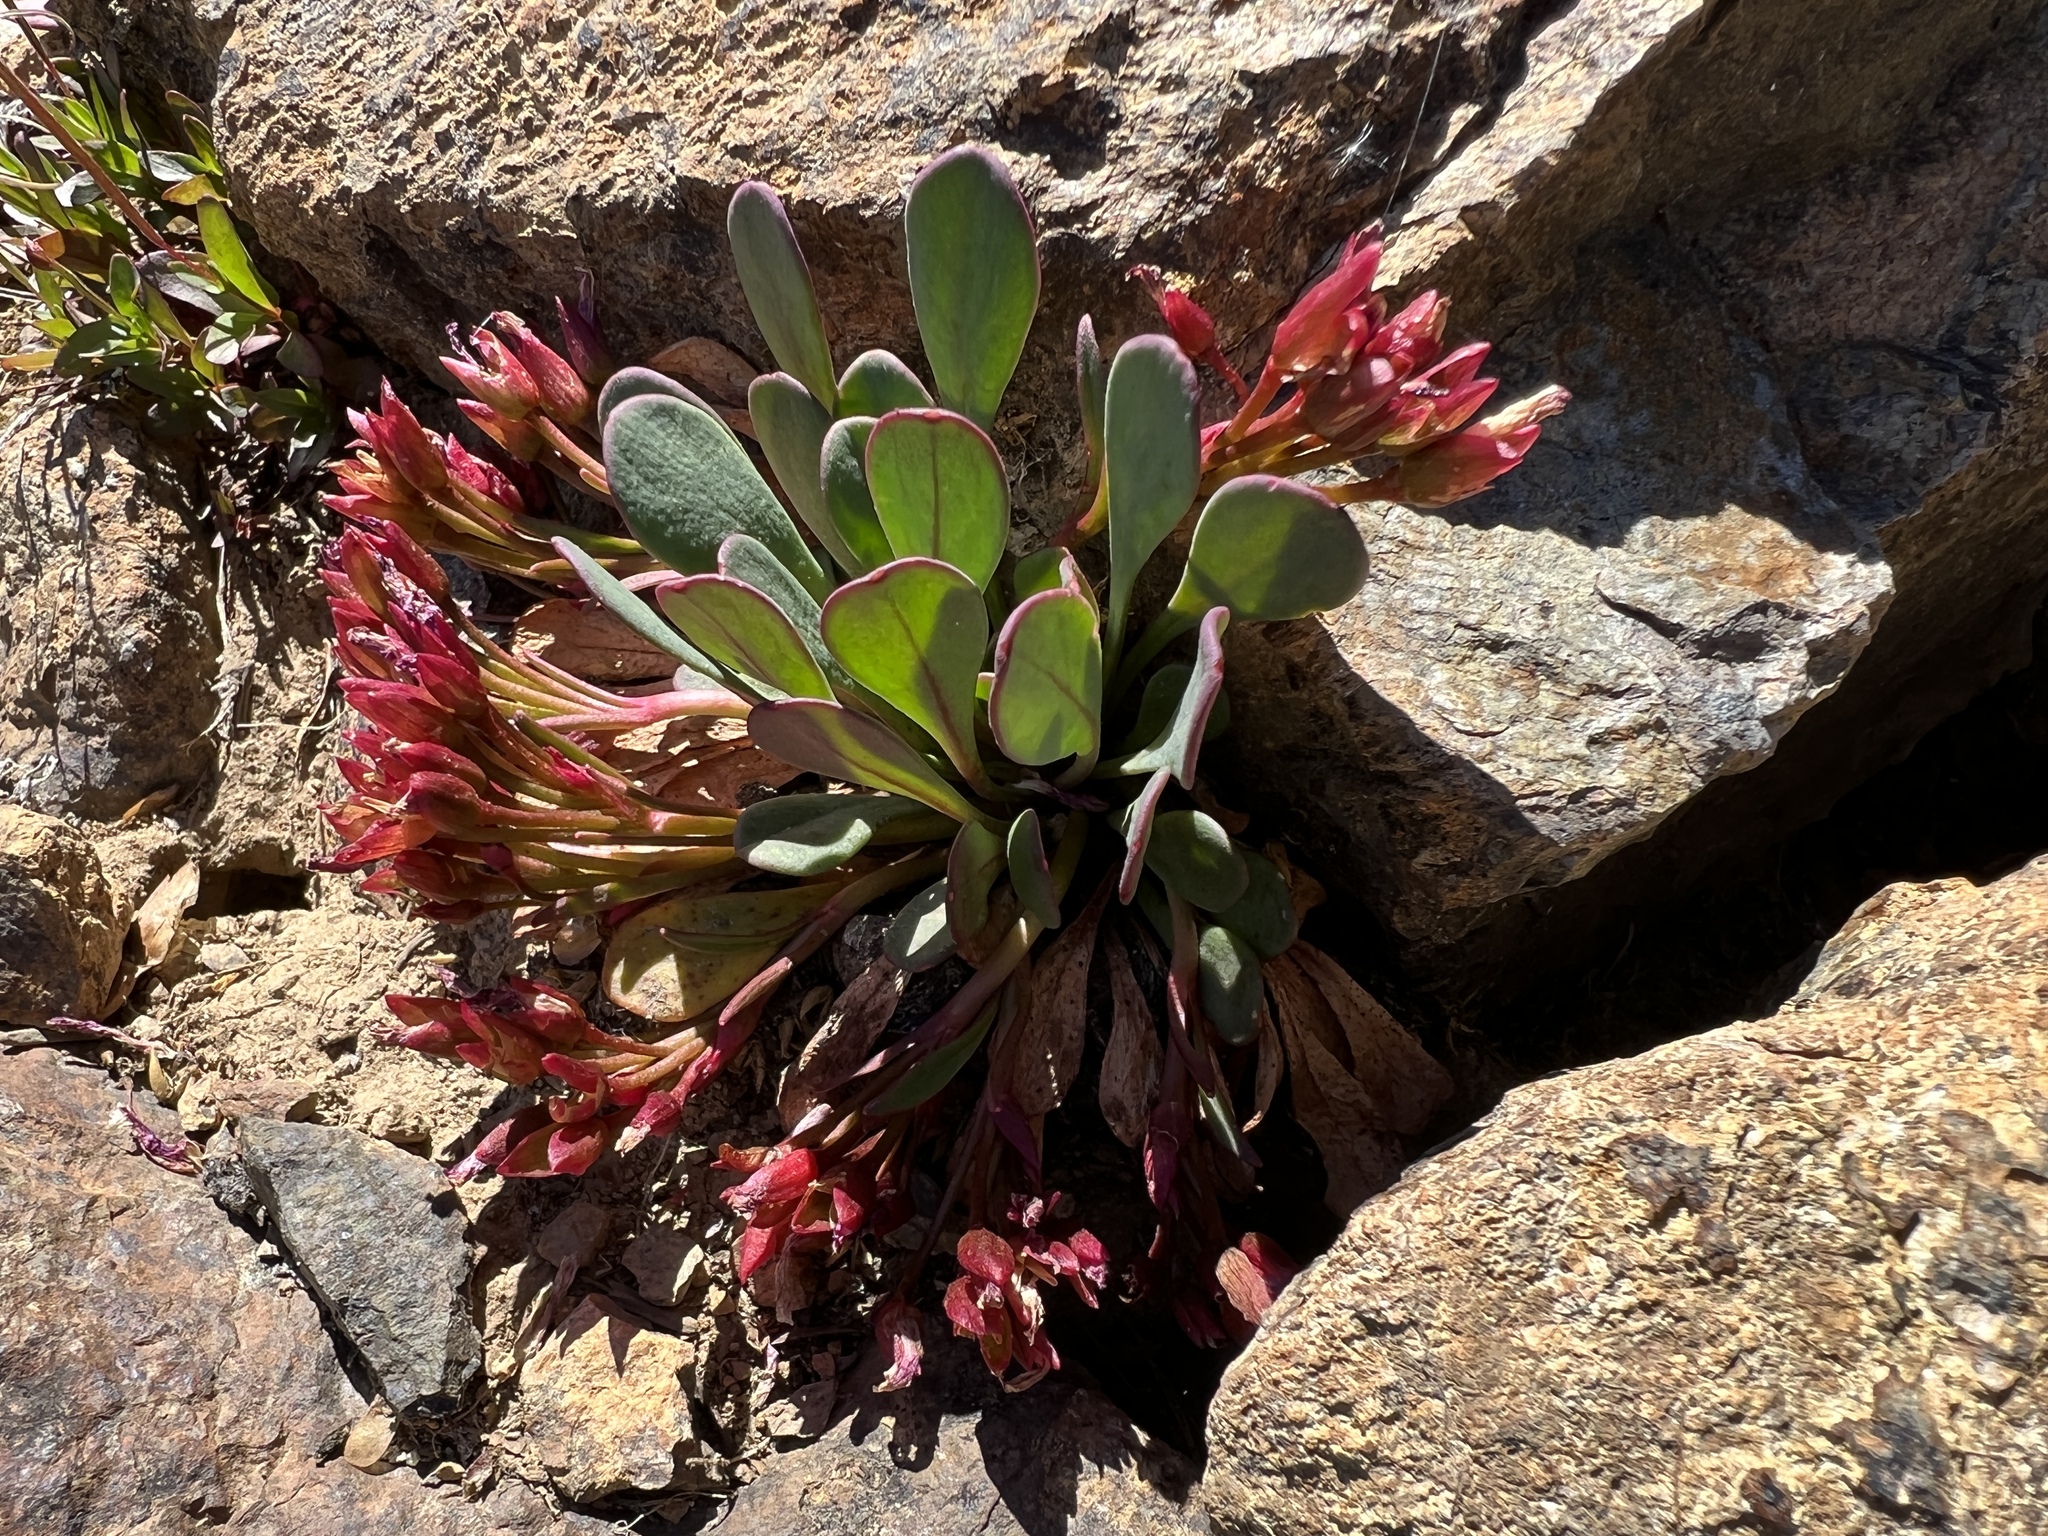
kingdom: Plantae
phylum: Tracheophyta
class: Magnoliopsida
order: Caryophyllales
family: Montiaceae
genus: Claytonia
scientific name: Claytonia megarhiza
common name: Alpine spring beauty
